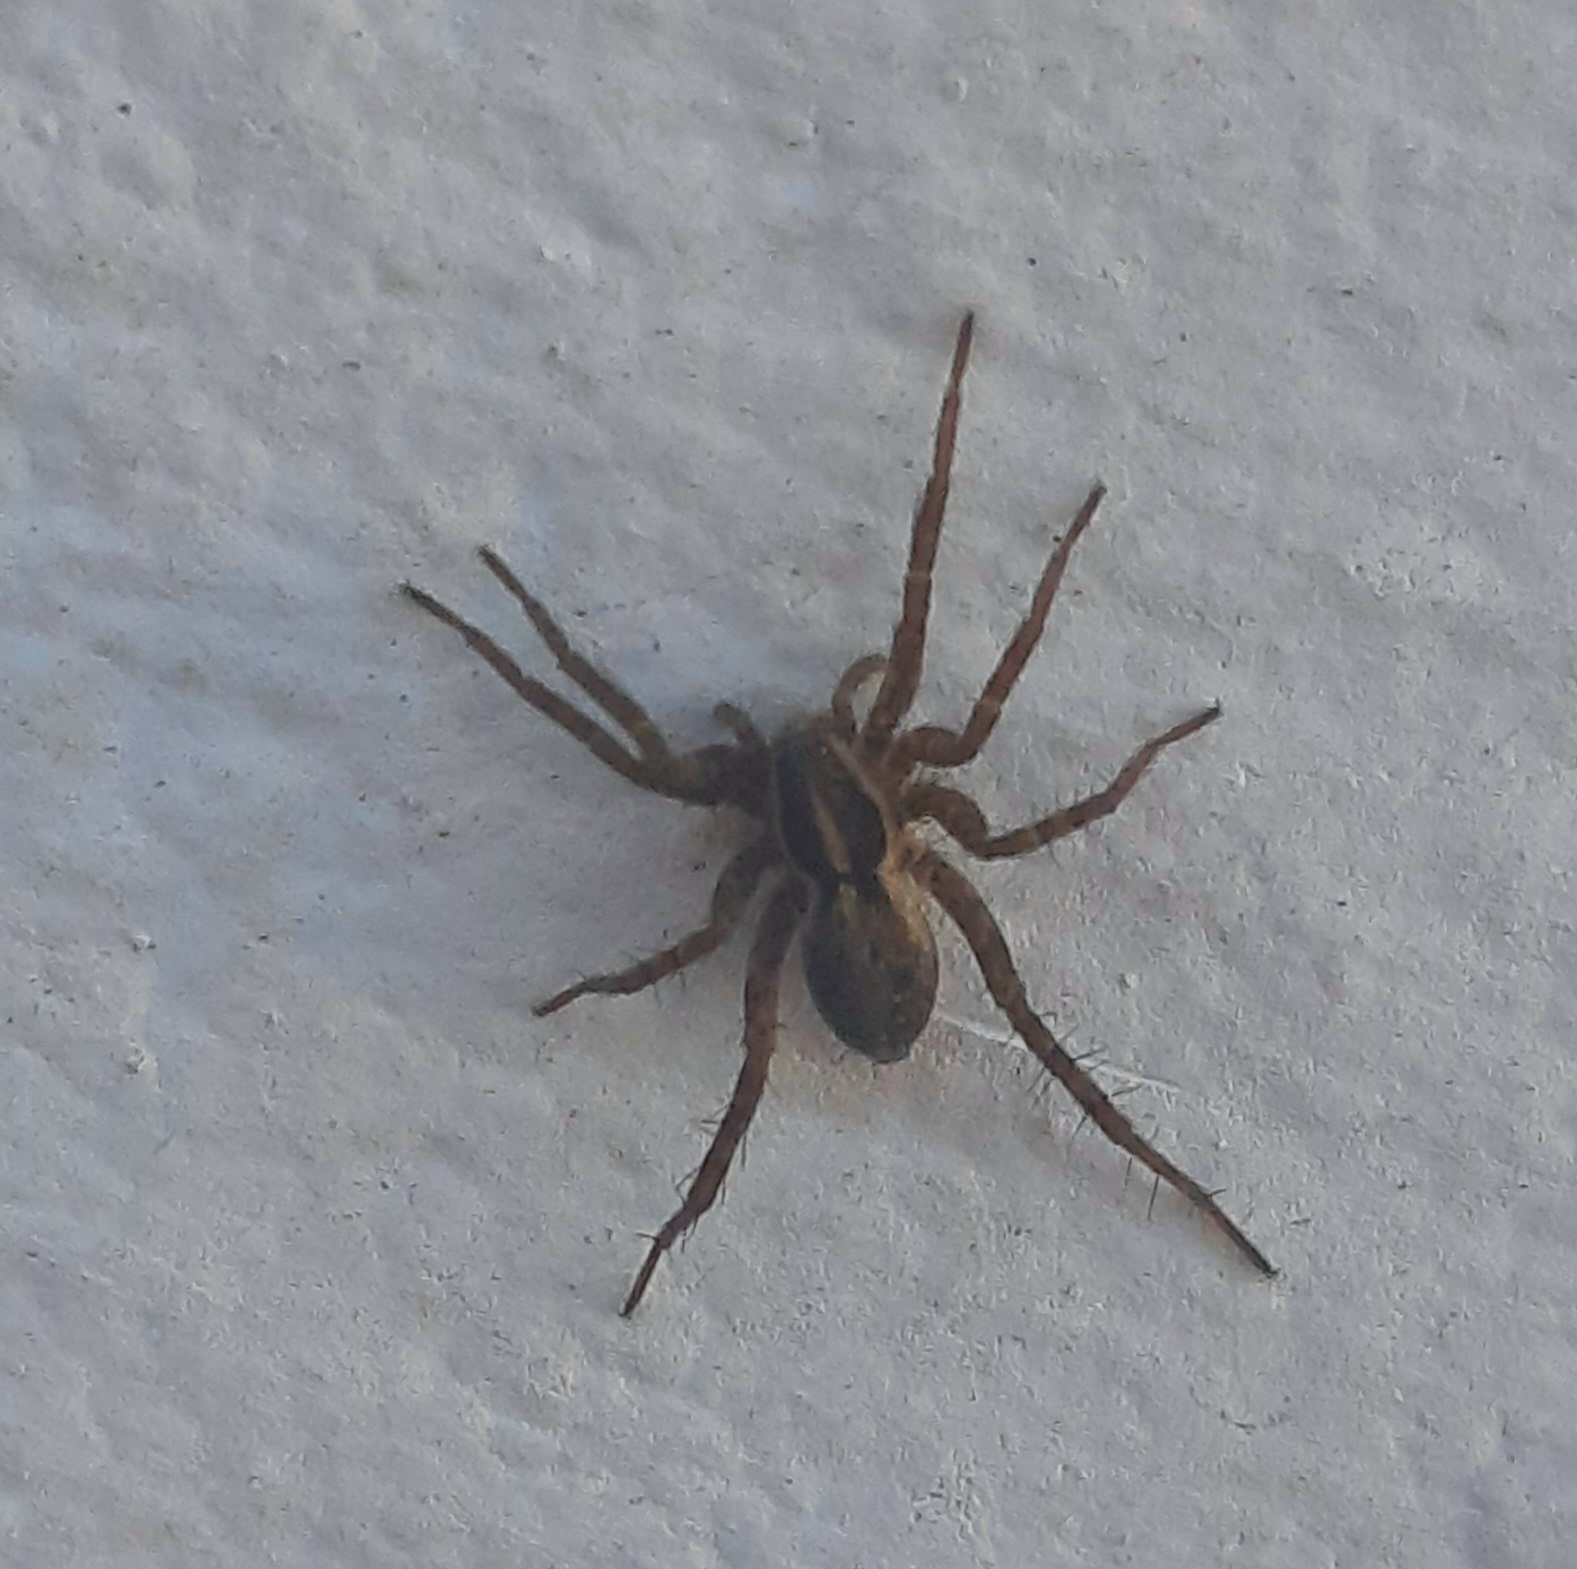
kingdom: Animalia
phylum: Arthropoda
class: Arachnida
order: Araneae
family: Lycosidae
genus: Pardosa
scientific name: Pardosa
